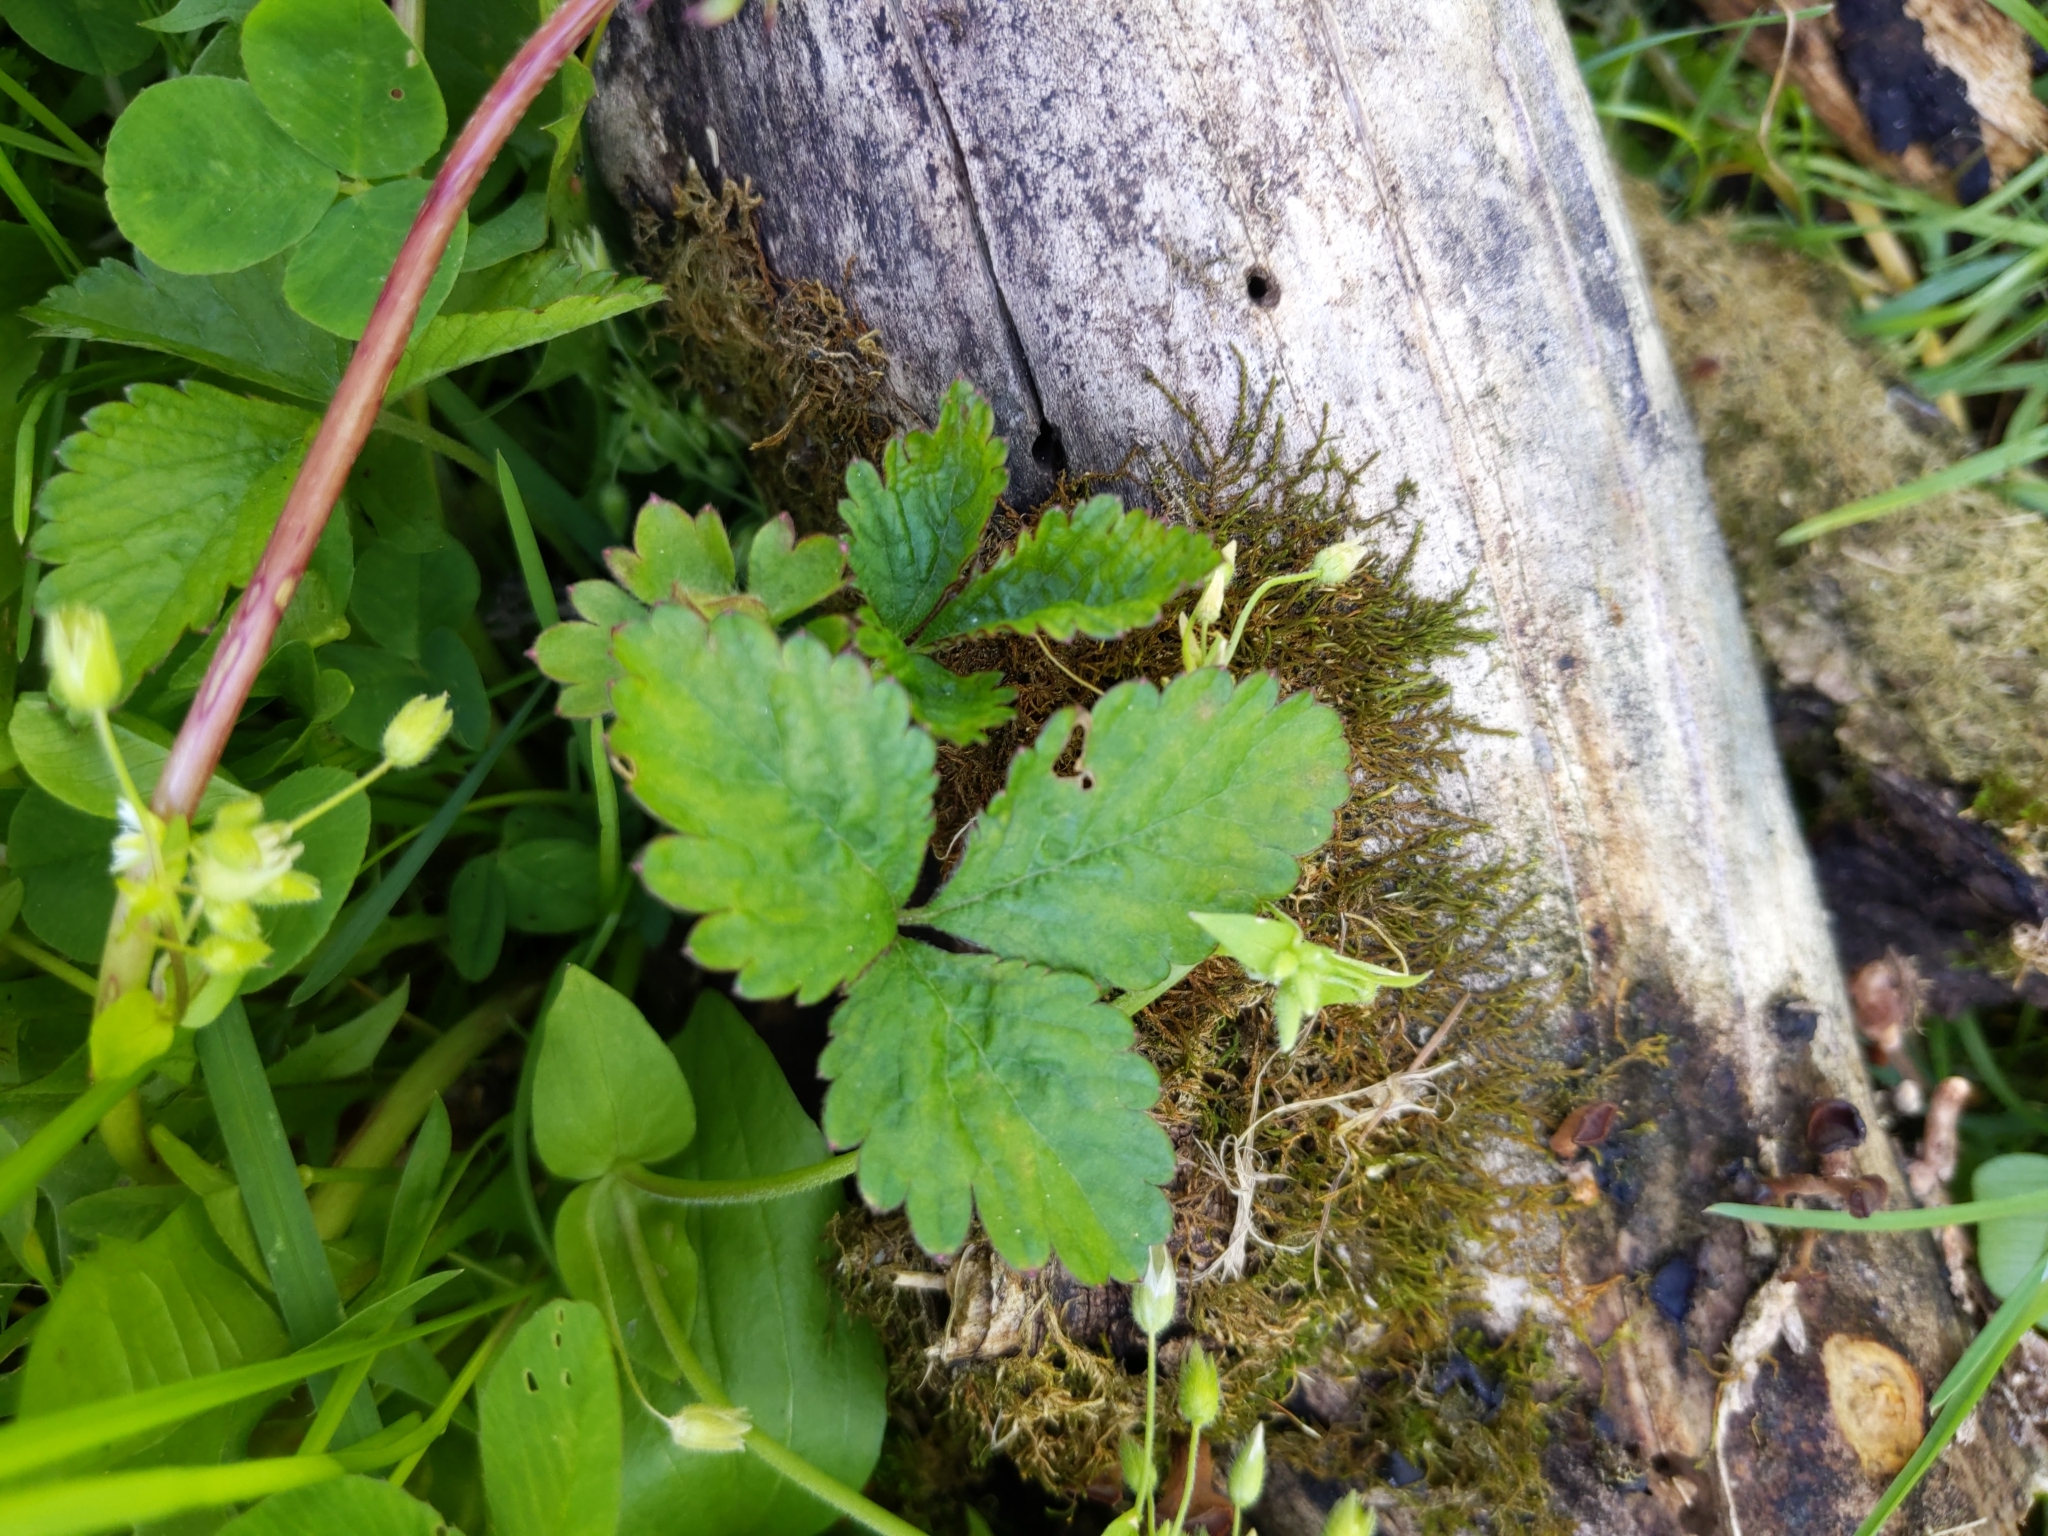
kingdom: Plantae
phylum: Tracheophyta
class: Magnoliopsida
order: Rosales
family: Rosaceae
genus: Potentilla
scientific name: Potentilla indica
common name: Yellow-flowered strawberry
